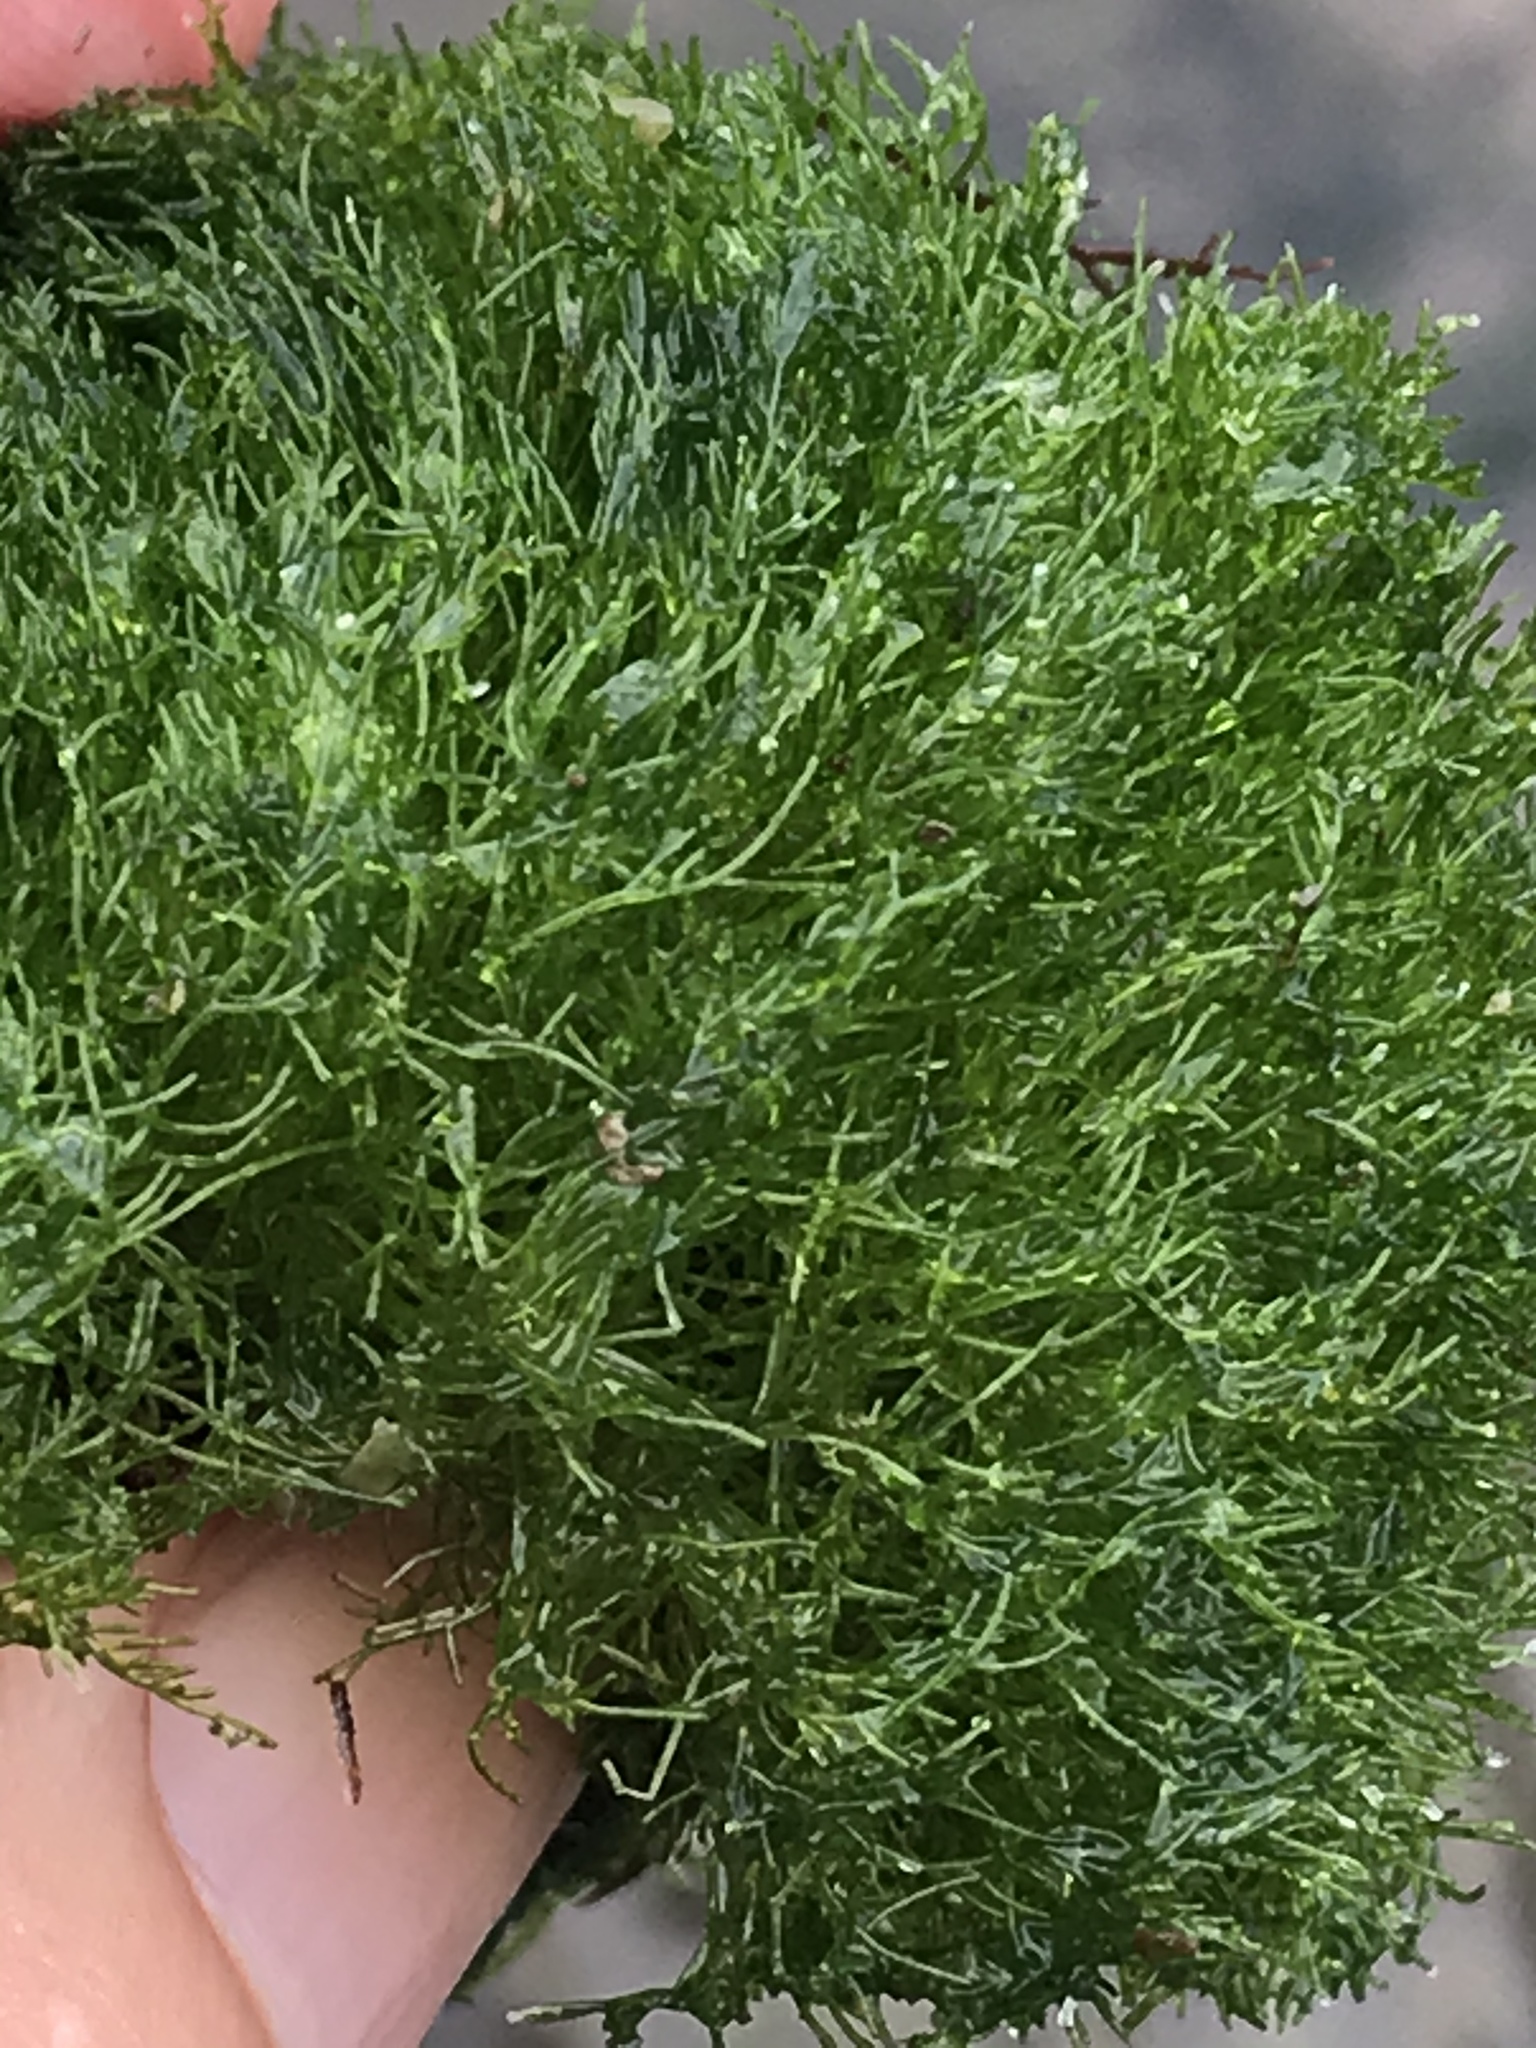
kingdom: Plantae
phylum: Chlorophyta
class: Ulvophyceae
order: Cladophorales
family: Cladophoraceae
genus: Cladophora
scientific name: Cladophora columbiana
